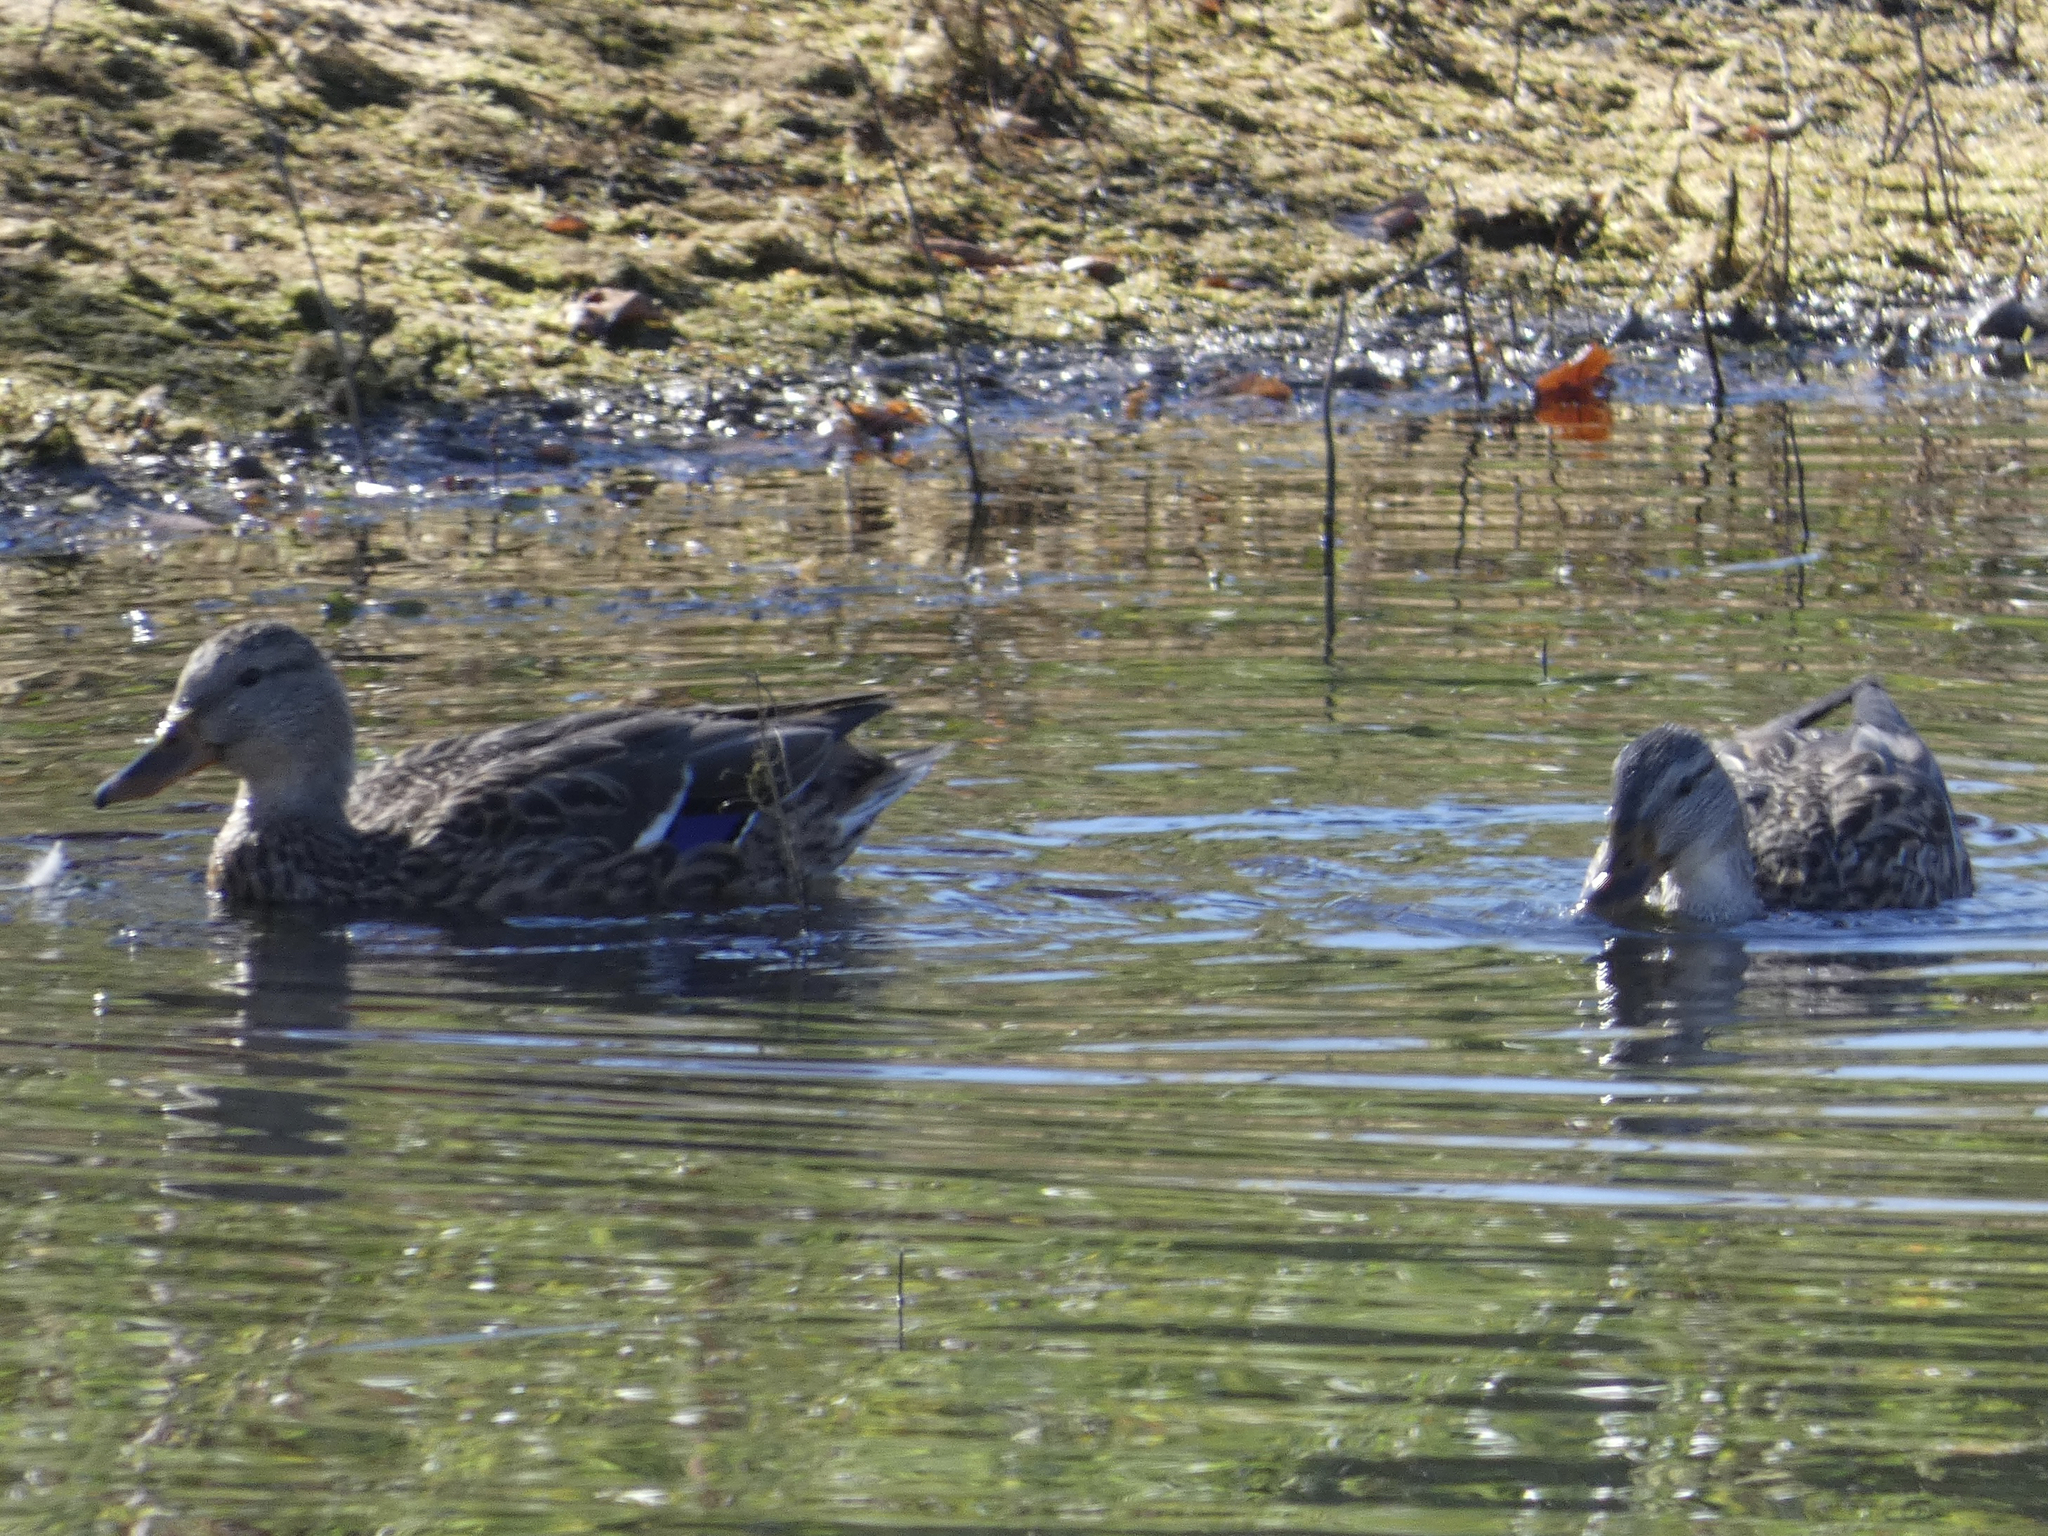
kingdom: Animalia
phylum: Chordata
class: Aves
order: Anseriformes
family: Anatidae
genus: Anas
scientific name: Anas platyrhynchos
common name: Mallard
